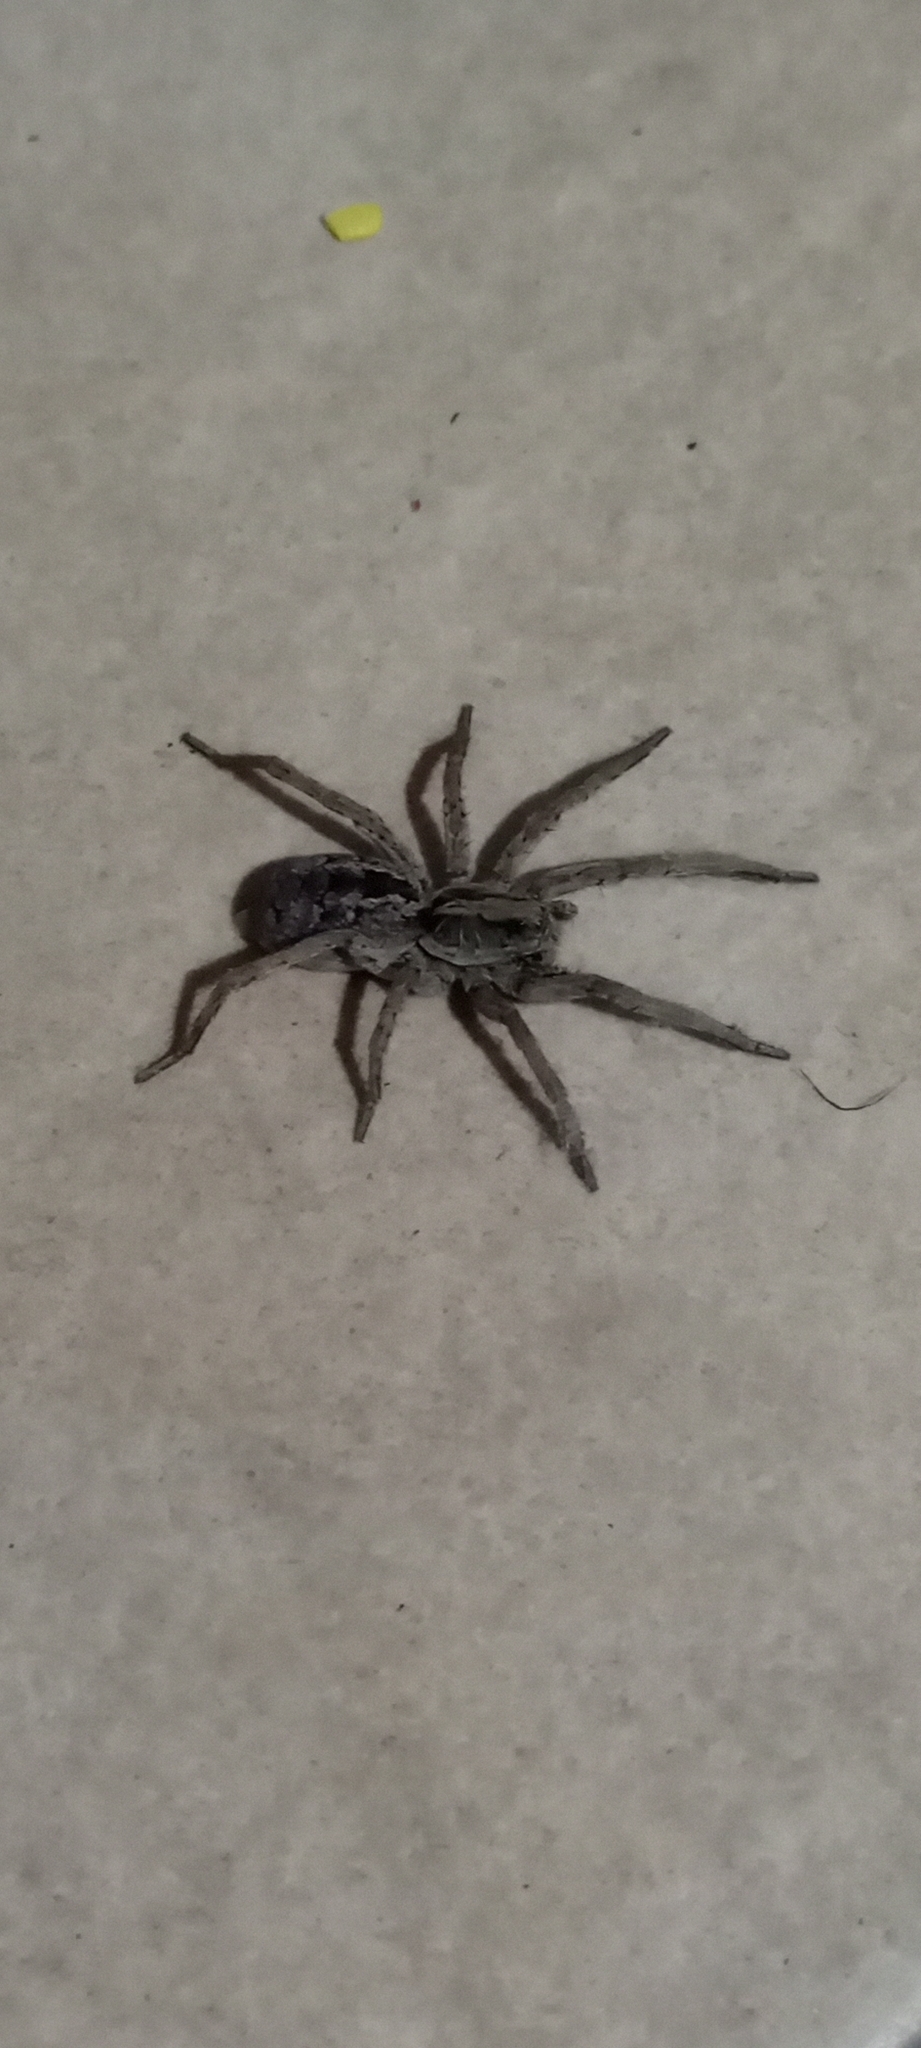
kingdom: Animalia
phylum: Arthropoda
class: Arachnida
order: Araneae
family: Lycosidae
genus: Schizocosa
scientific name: Schizocosa malitiosa
